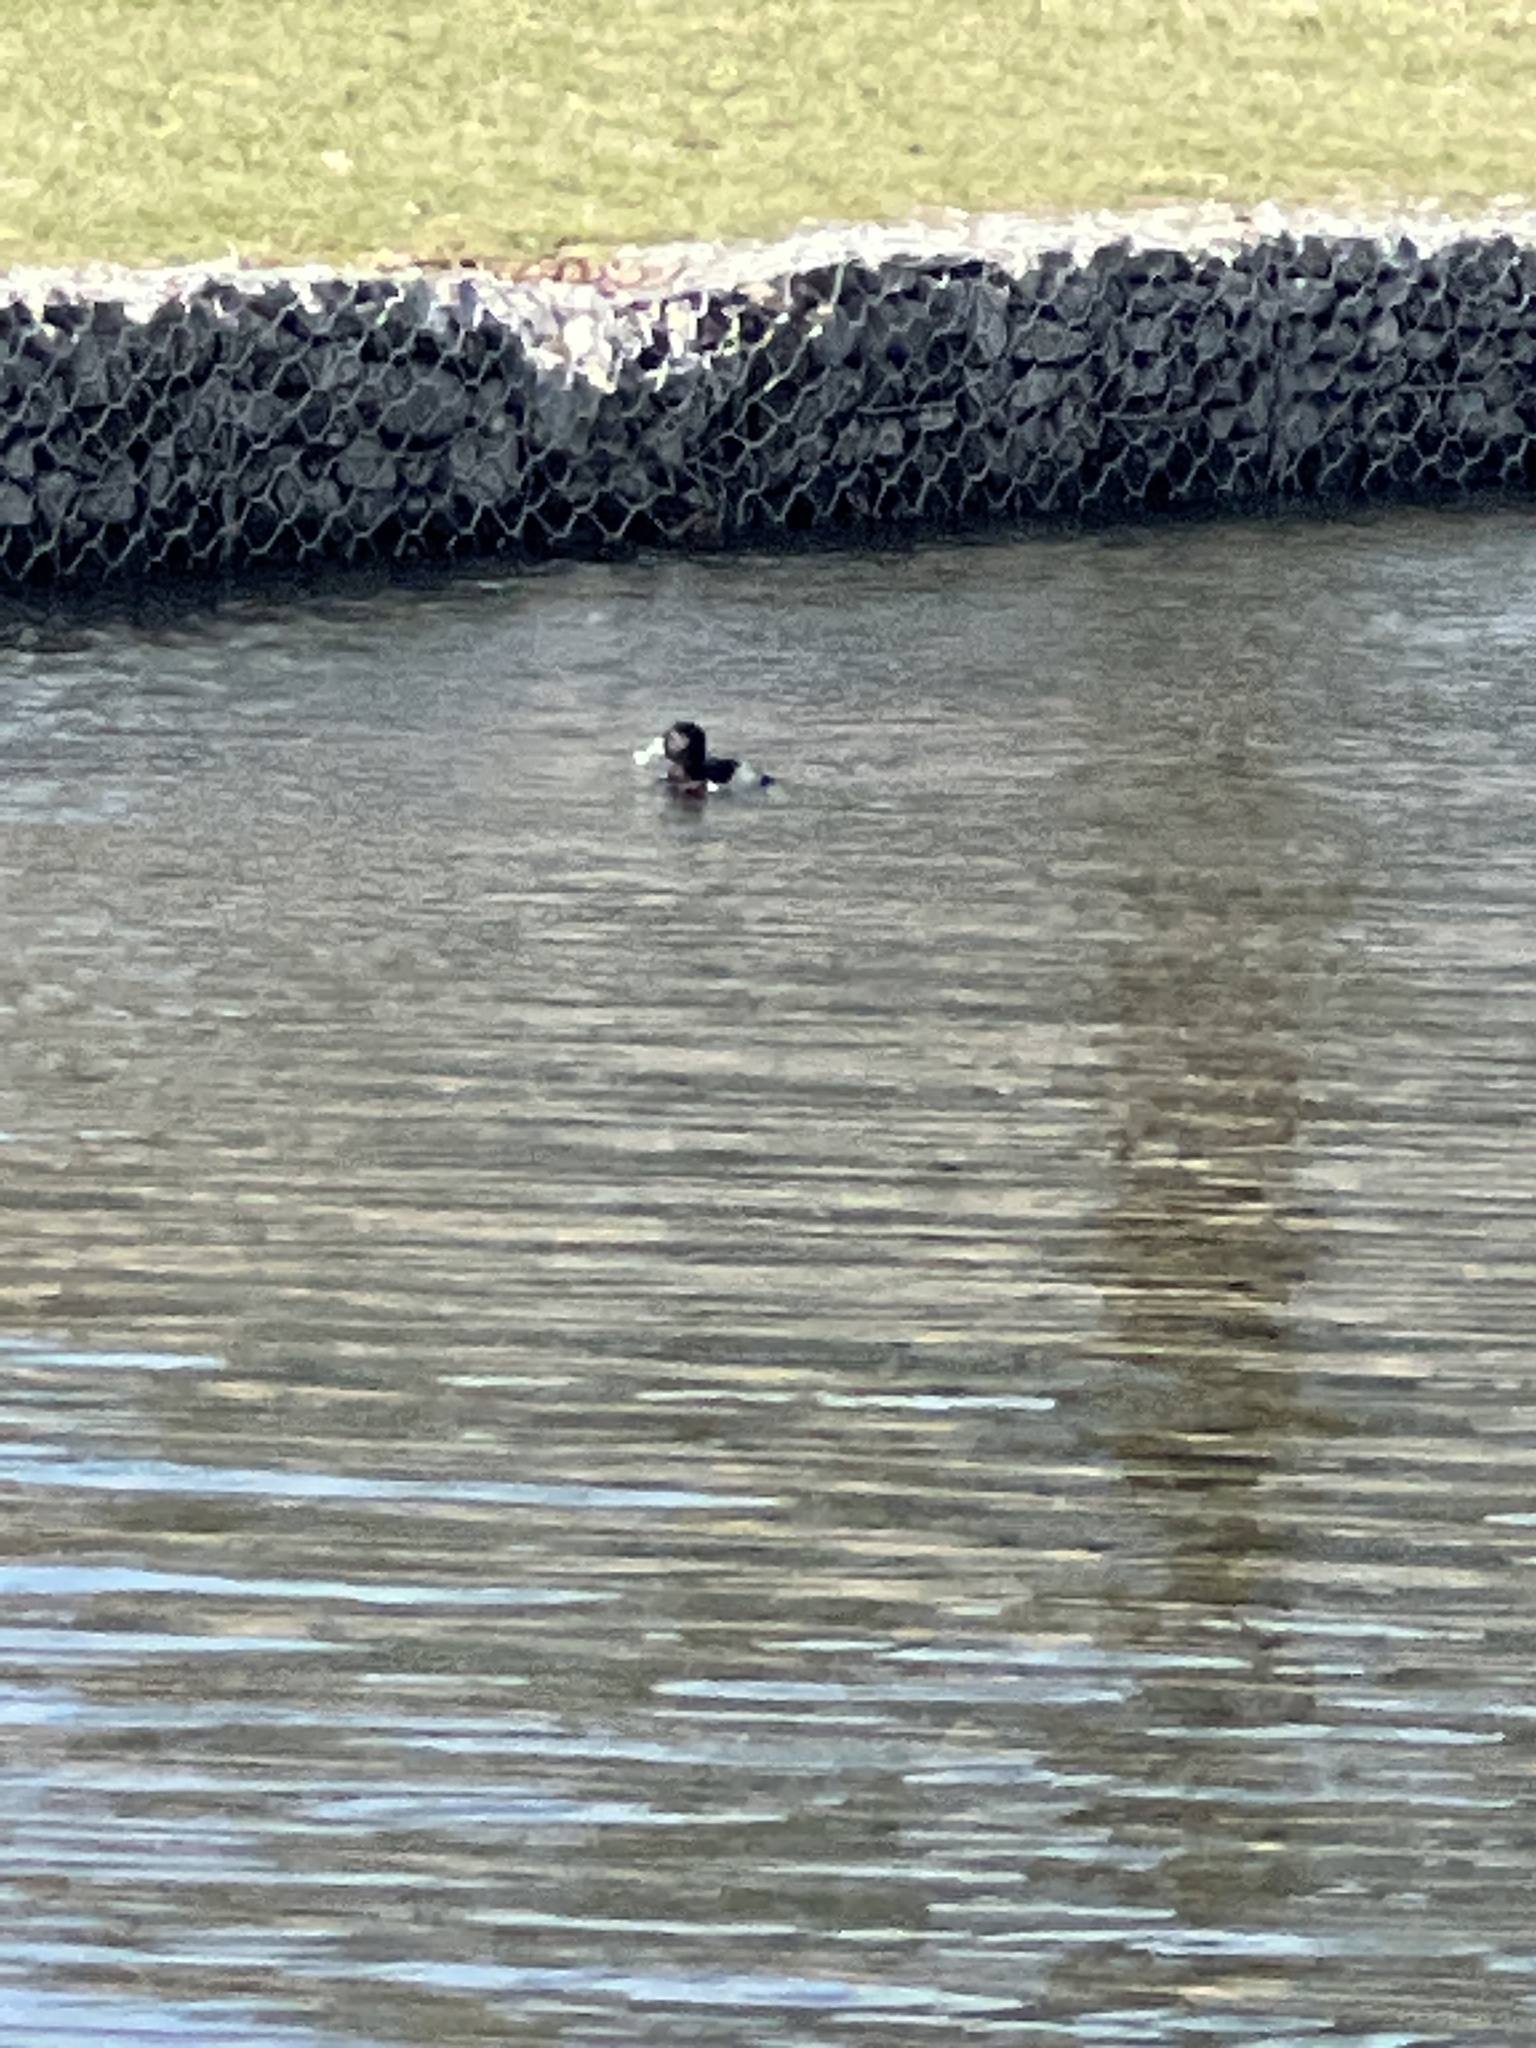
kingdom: Animalia
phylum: Chordata
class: Aves
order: Anseriformes
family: Anatidae
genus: Aythya
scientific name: Aythya collaris
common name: Ring-necked duck
